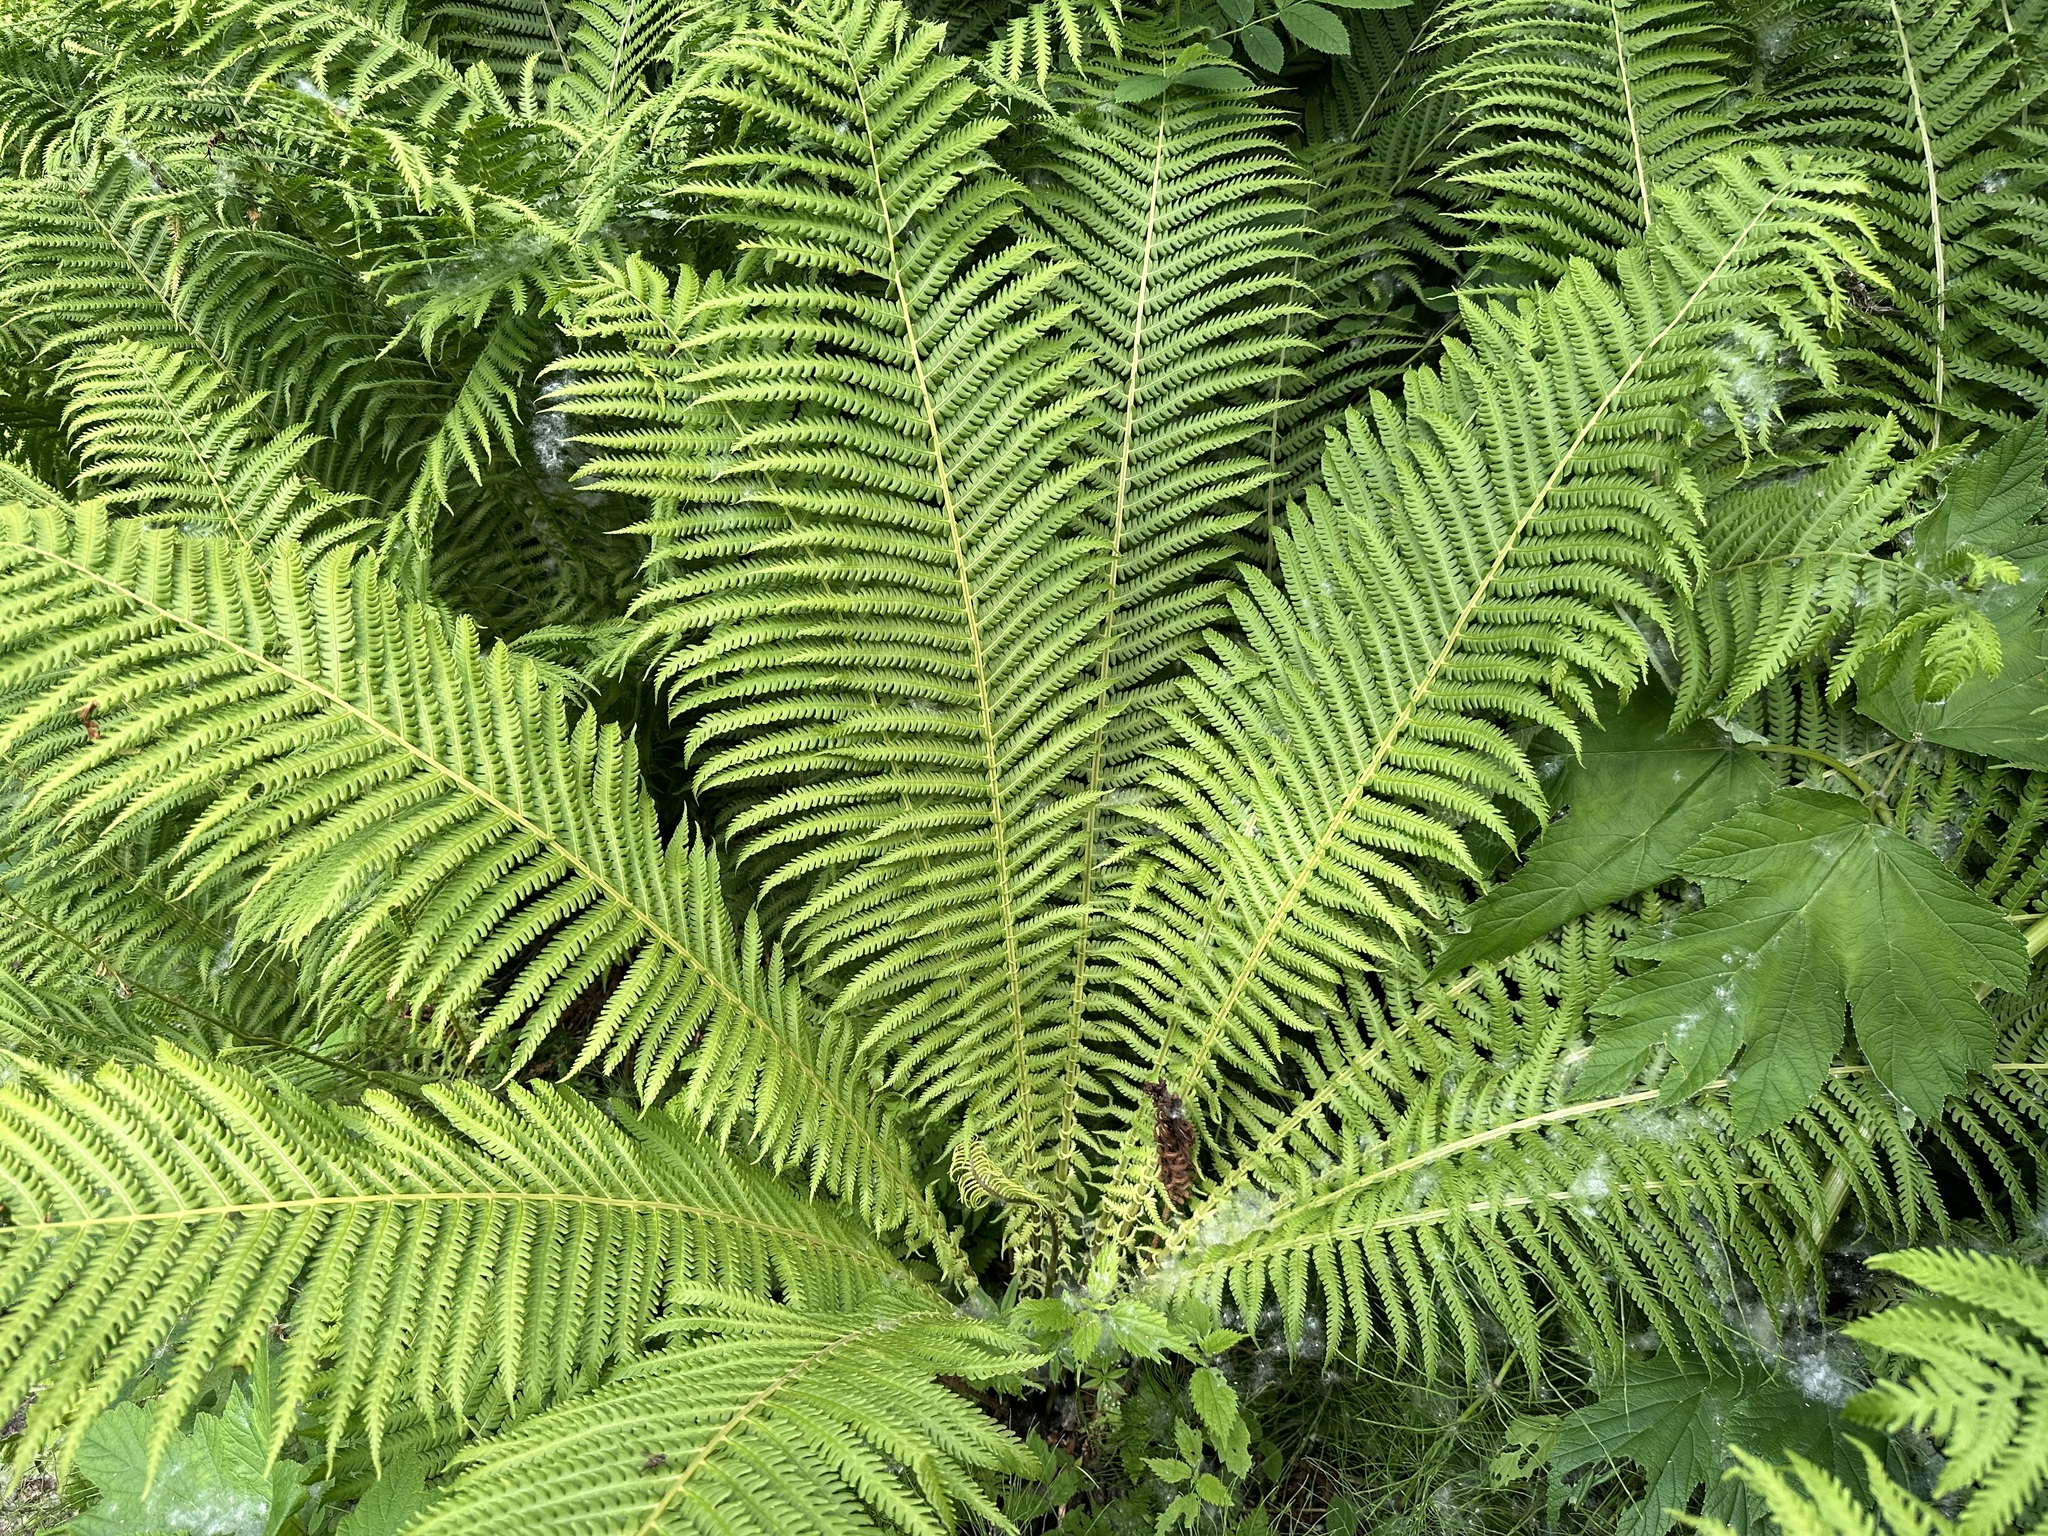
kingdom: Plantae
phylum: Tracheophyta
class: Polypodiopsida
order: Polypodiales
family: Onocleaceae
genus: Matteuccia
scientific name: Matteuccia struthiopteris
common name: Ostrich fern
